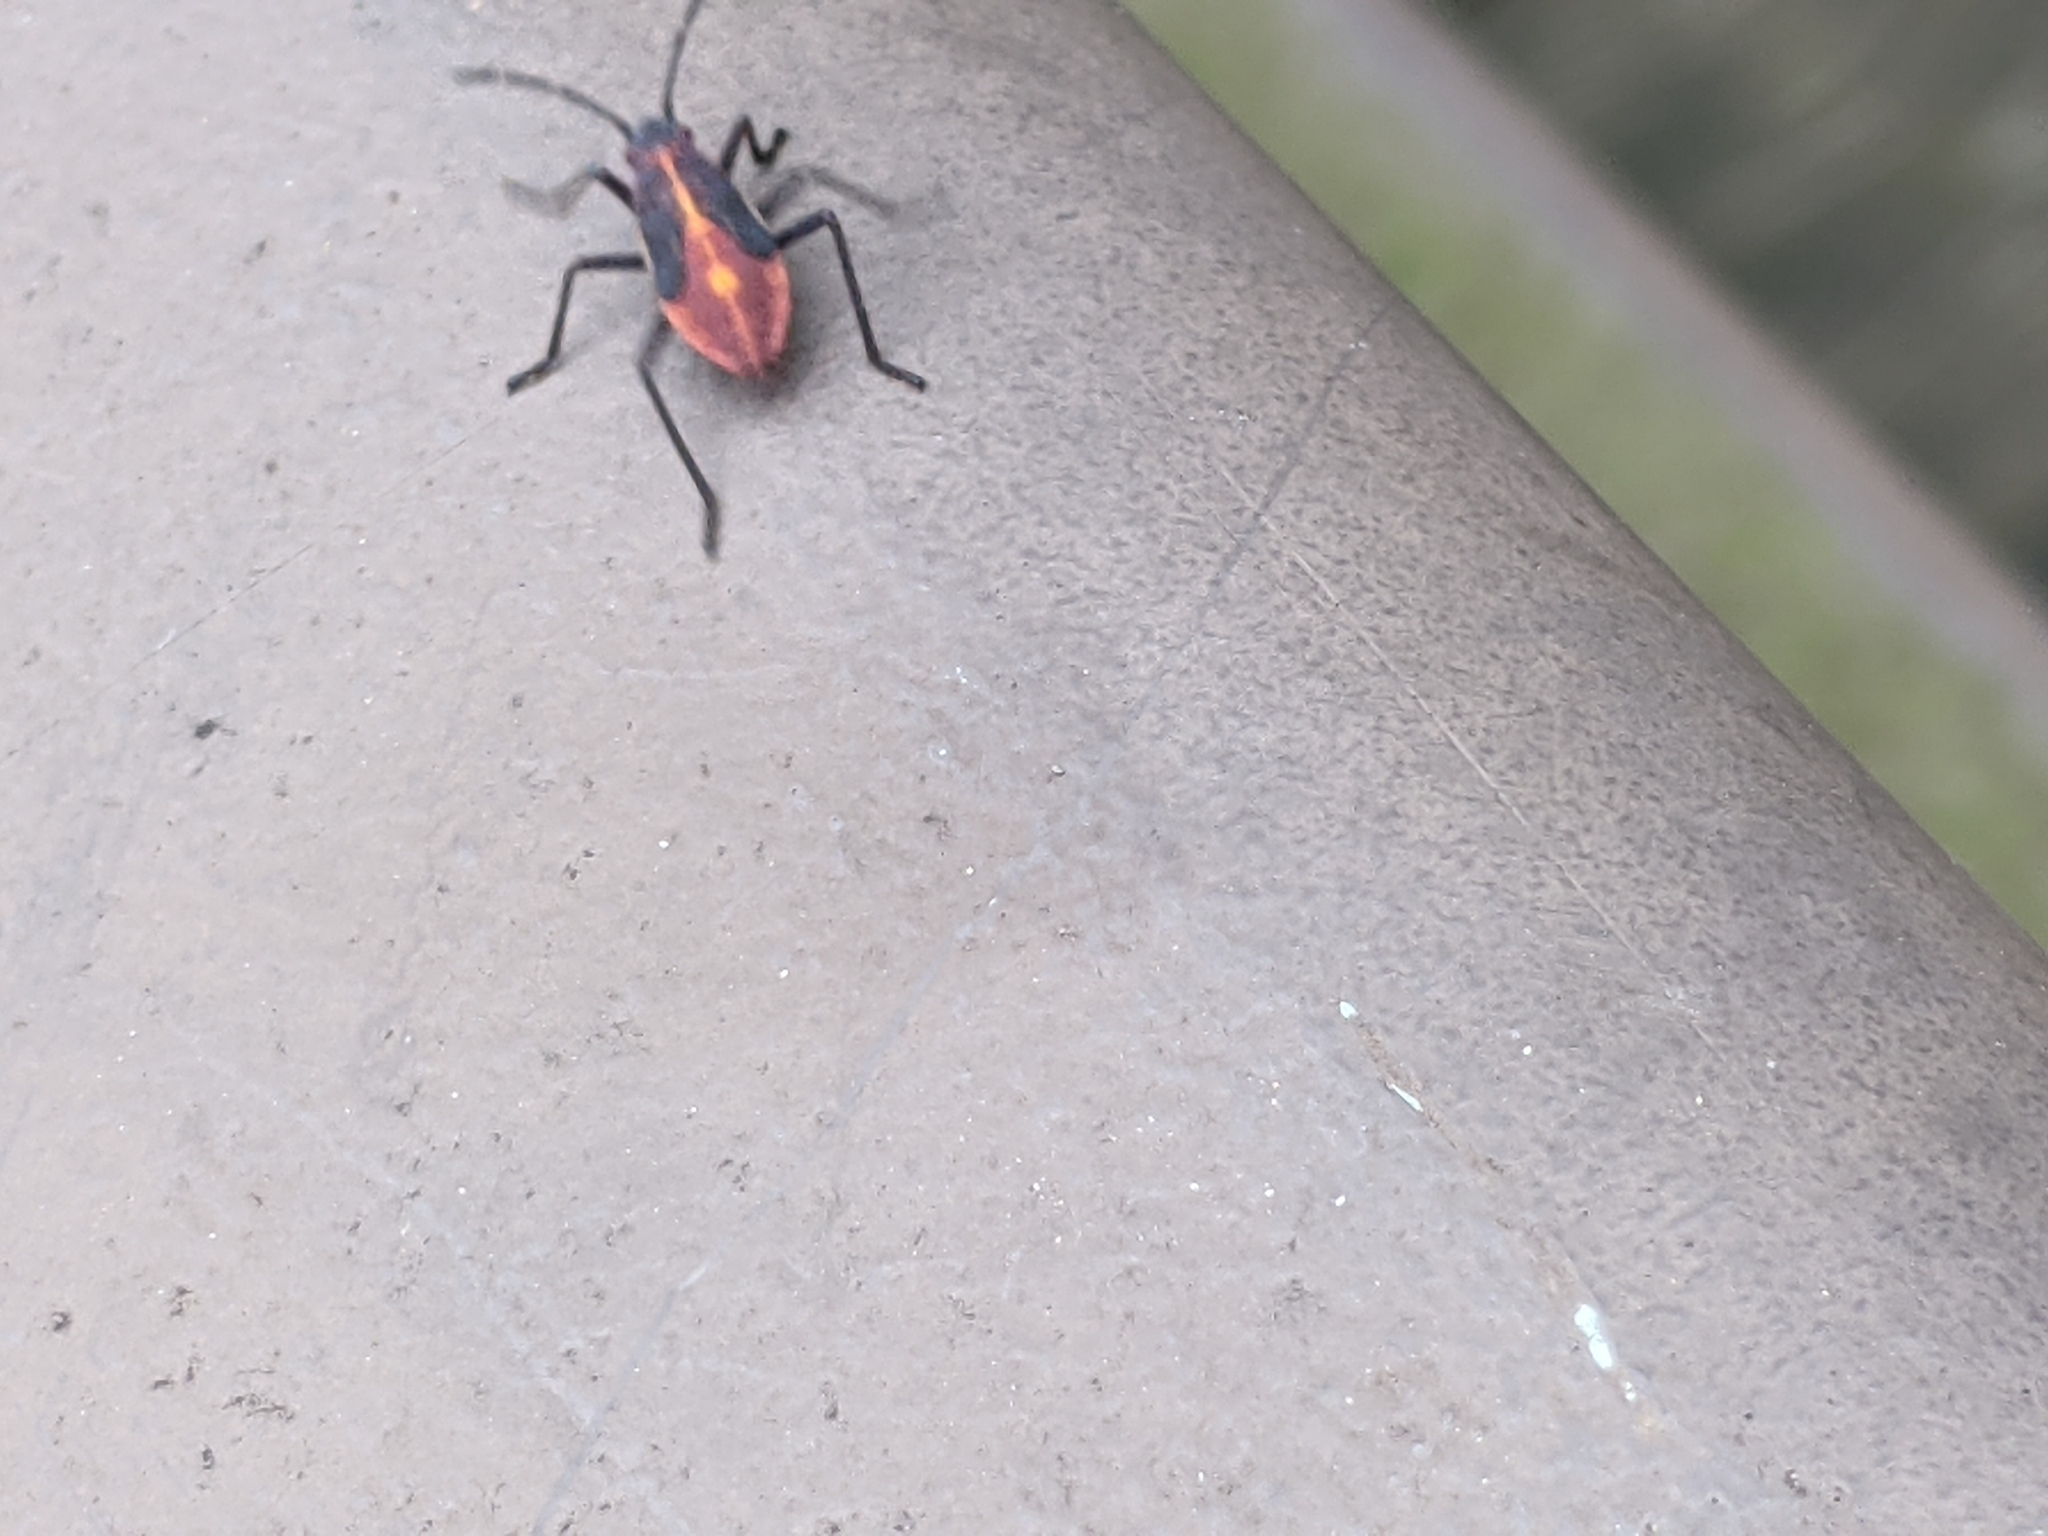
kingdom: Animalia
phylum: Arthropoda
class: Insecta
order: Hemiptera
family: Rhopalidae
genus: Boisea
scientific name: Boisea trivittata
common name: Boxelder bug
